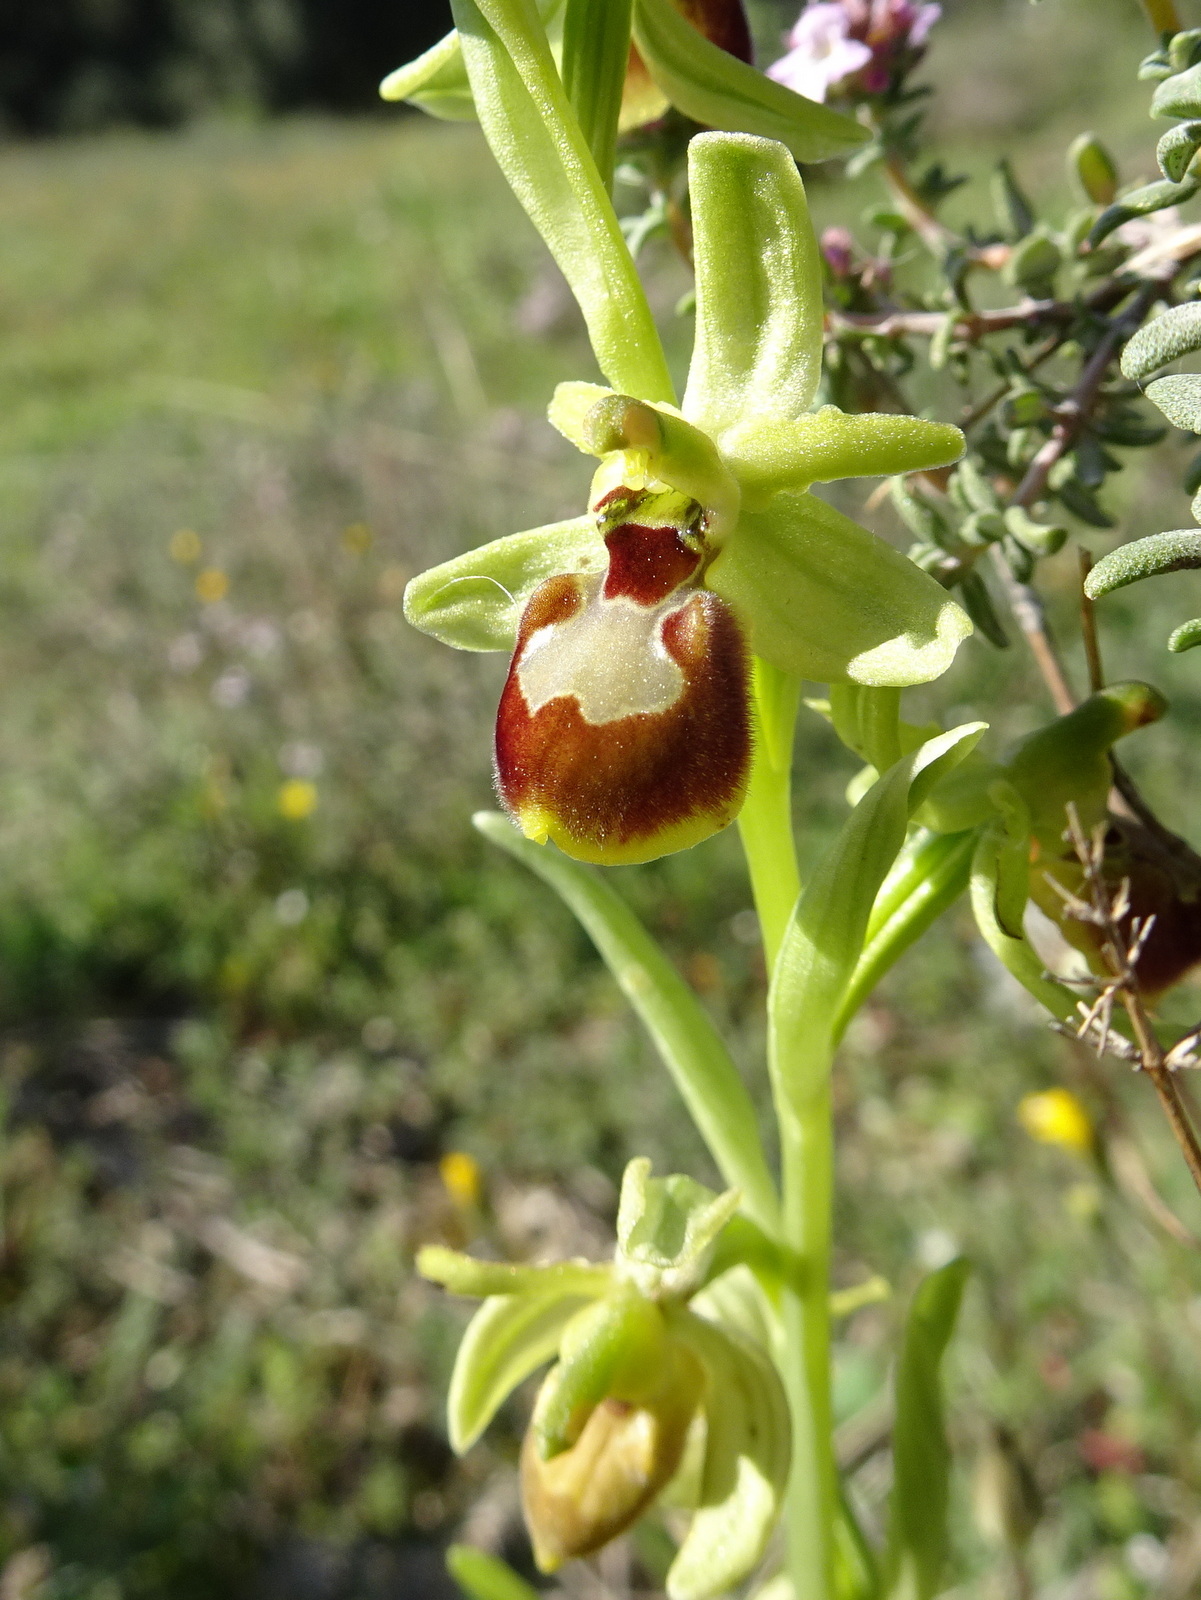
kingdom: Plantae
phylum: Tracheophyta
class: Liliopsida
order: Asparagales
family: Orchidaceae
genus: Ophrys
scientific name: Ophrys sphegodes
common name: Early spider-orchid
